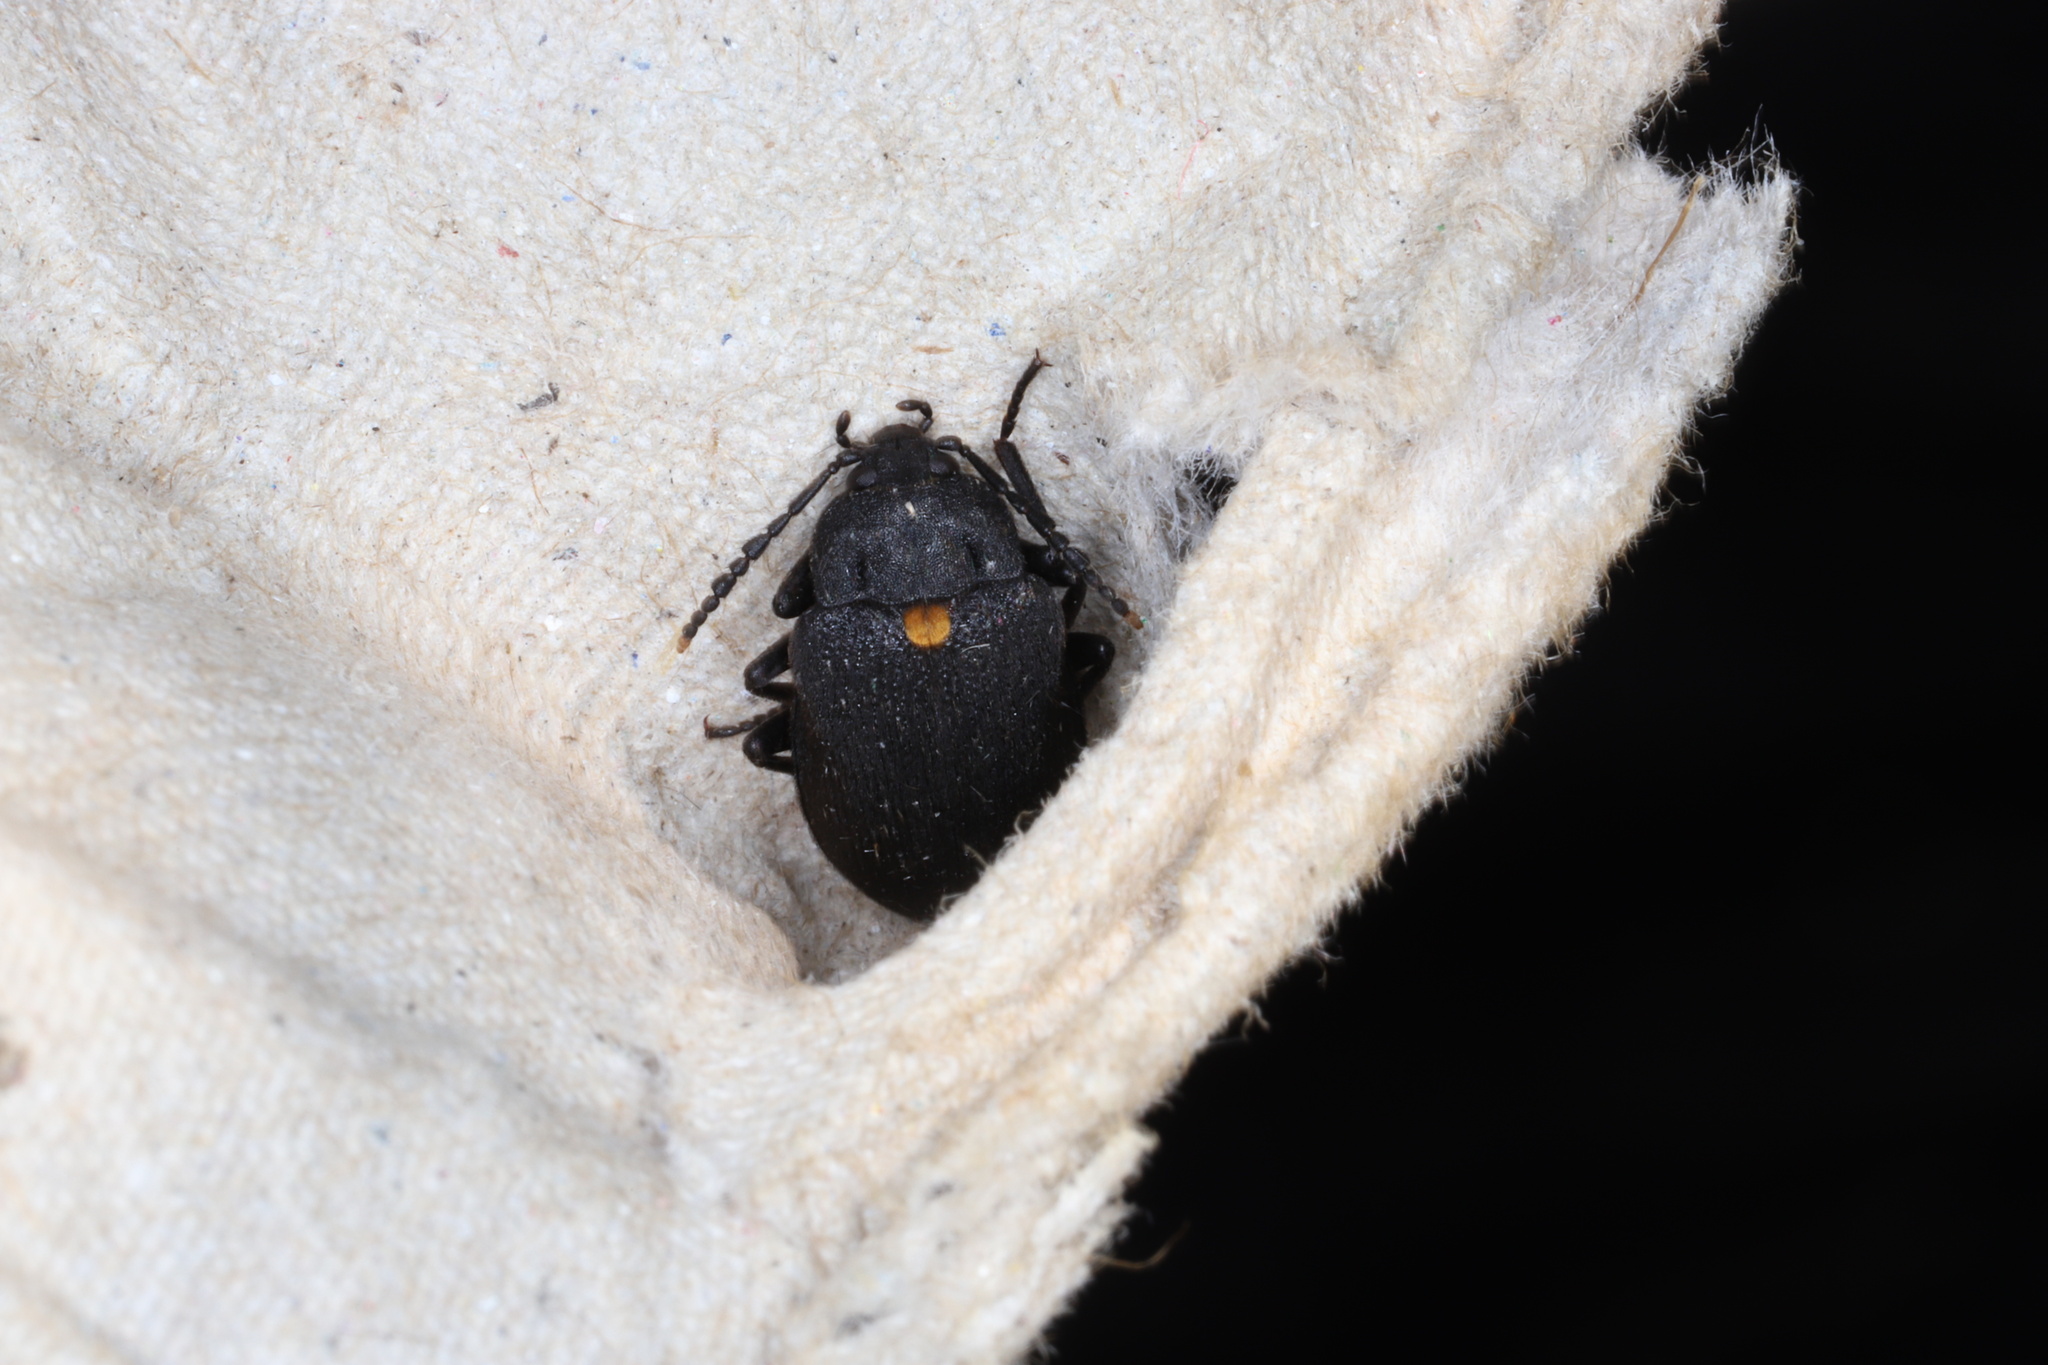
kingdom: Animalia
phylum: Arthropoda
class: Insecta
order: Coleoptera
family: Tetratomidae
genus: Penthe
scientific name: Penthe obliquata
